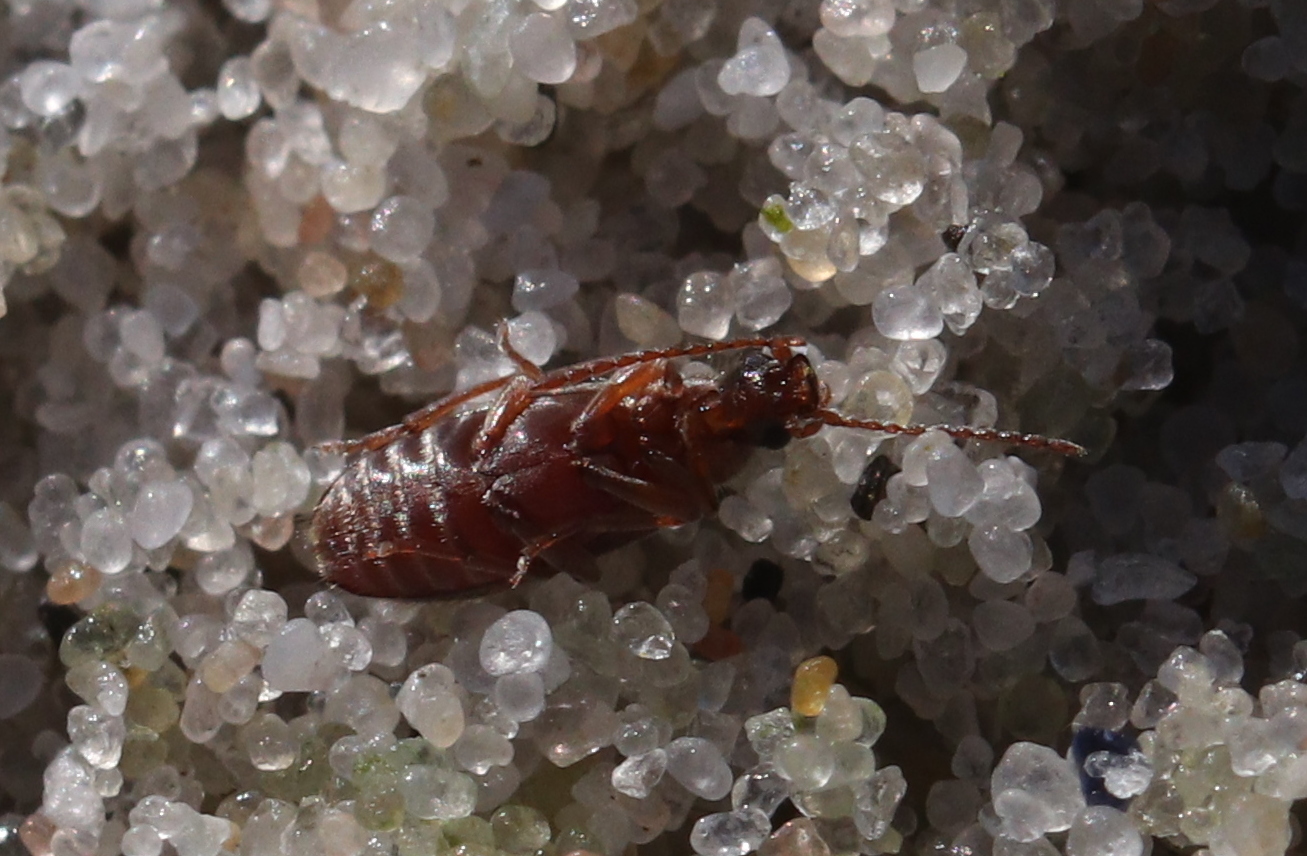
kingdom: Animalia
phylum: Arthropoda
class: Insecta
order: Coleoptera
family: Anthicidae
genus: Notoxus
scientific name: Notoxus monoceros
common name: Monoceros beetle
